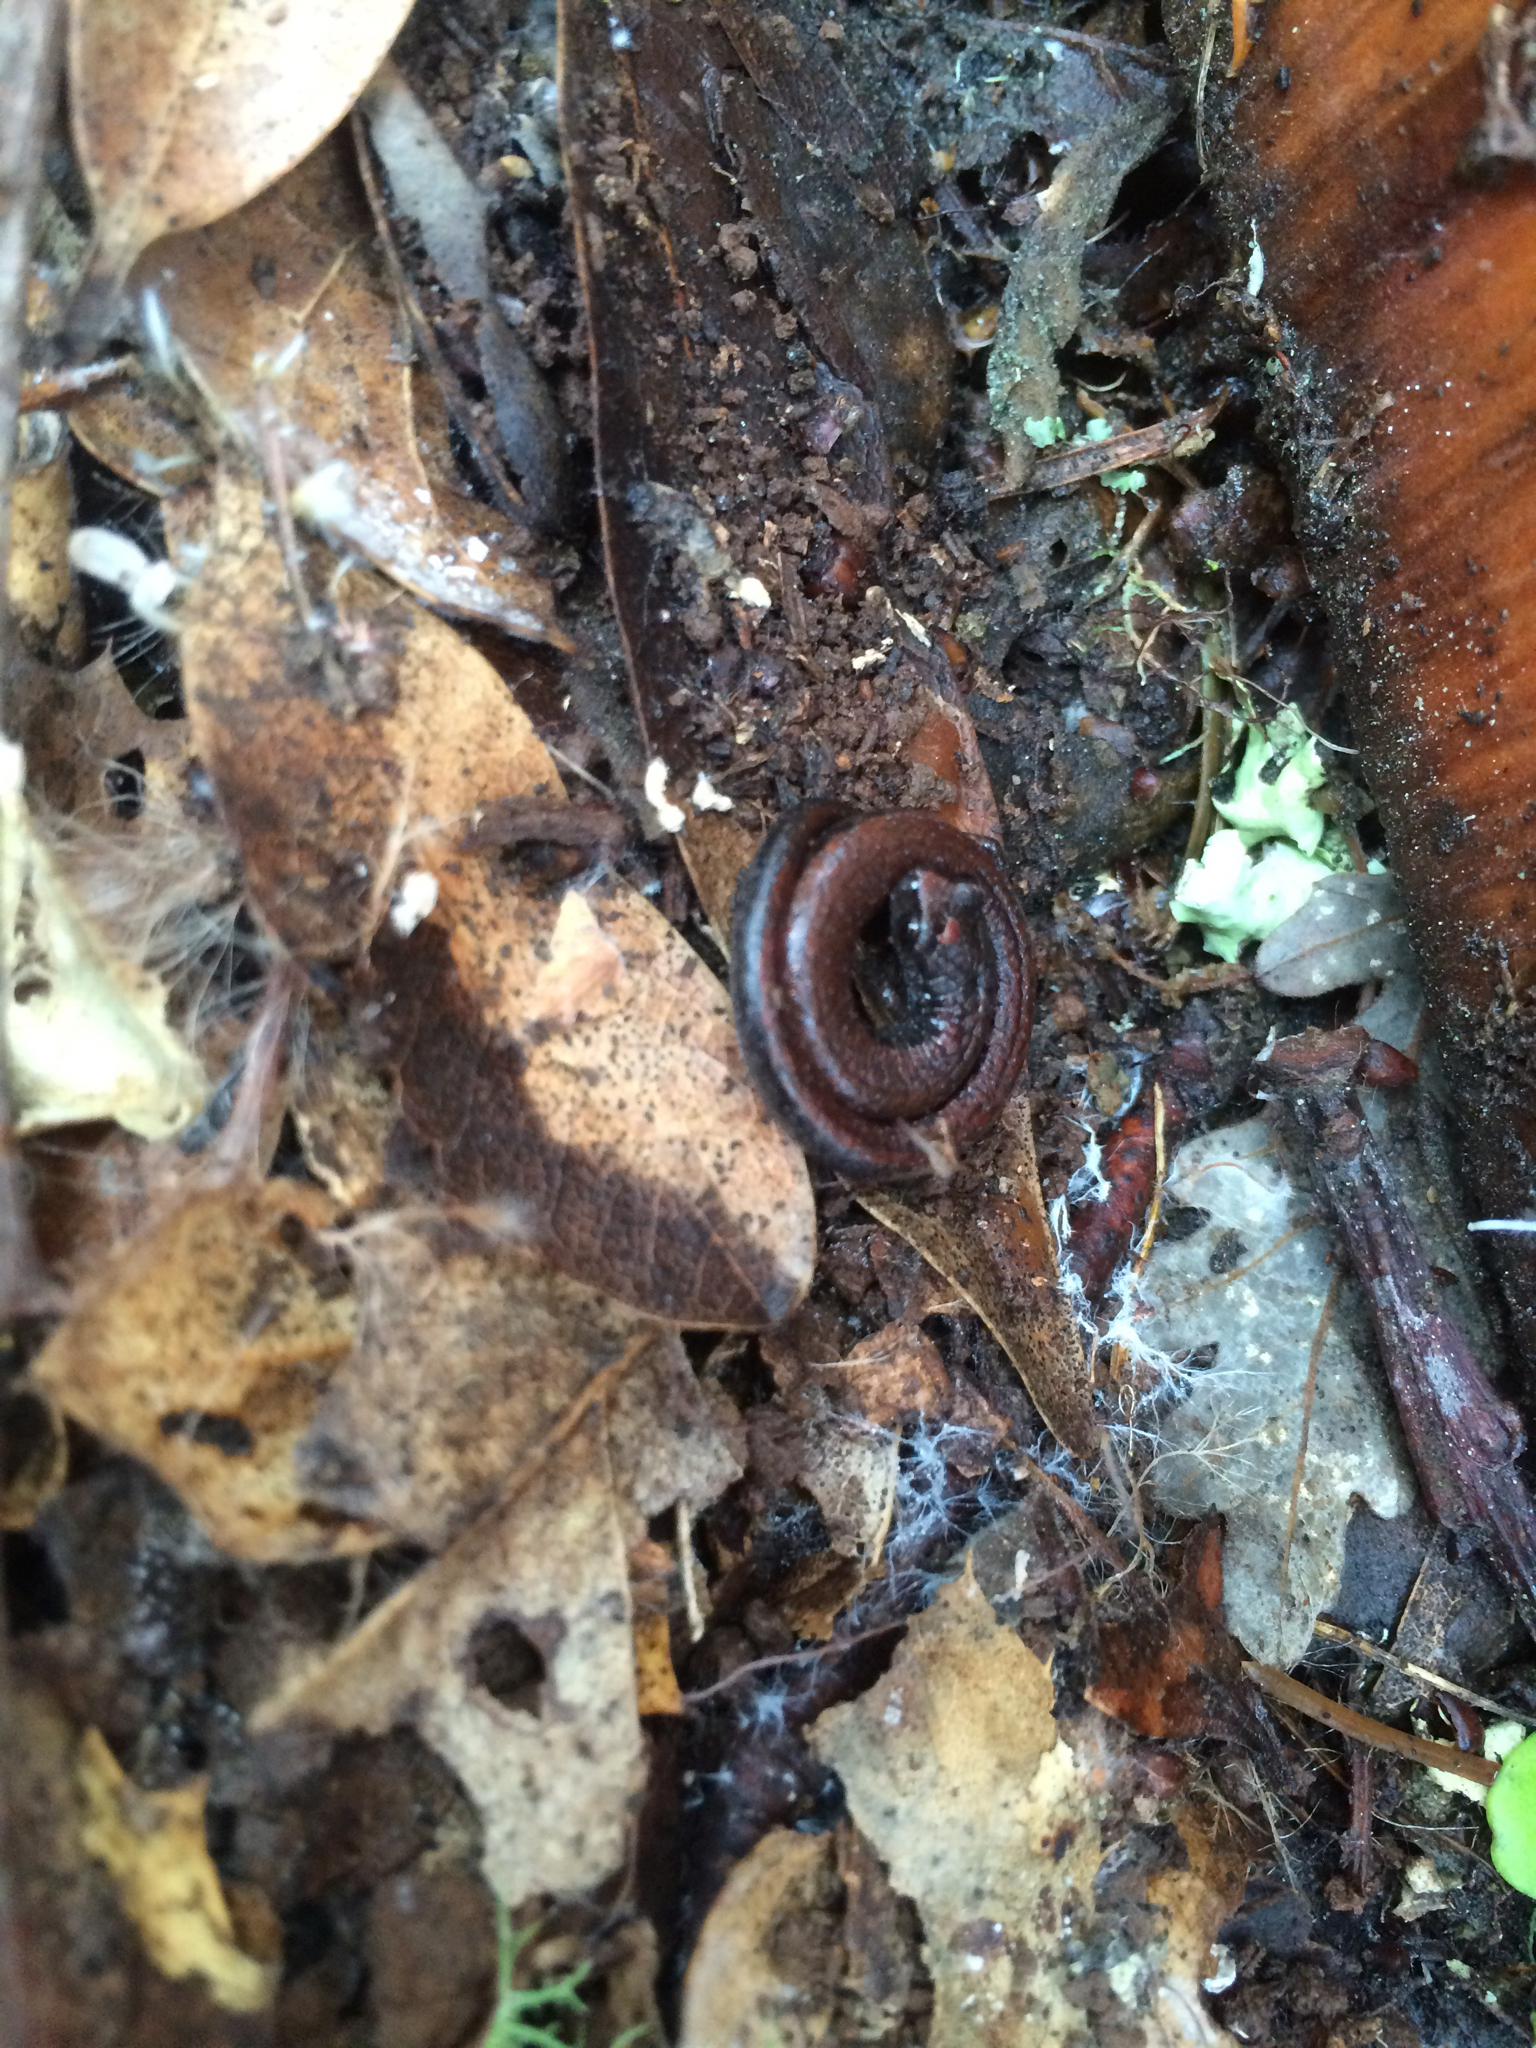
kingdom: Animalia
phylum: Chordata
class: Amphibia
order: Caudata
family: Plethodontidae
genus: Batrachoseps
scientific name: Batrachoseps attenuatus
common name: California slender salamander
